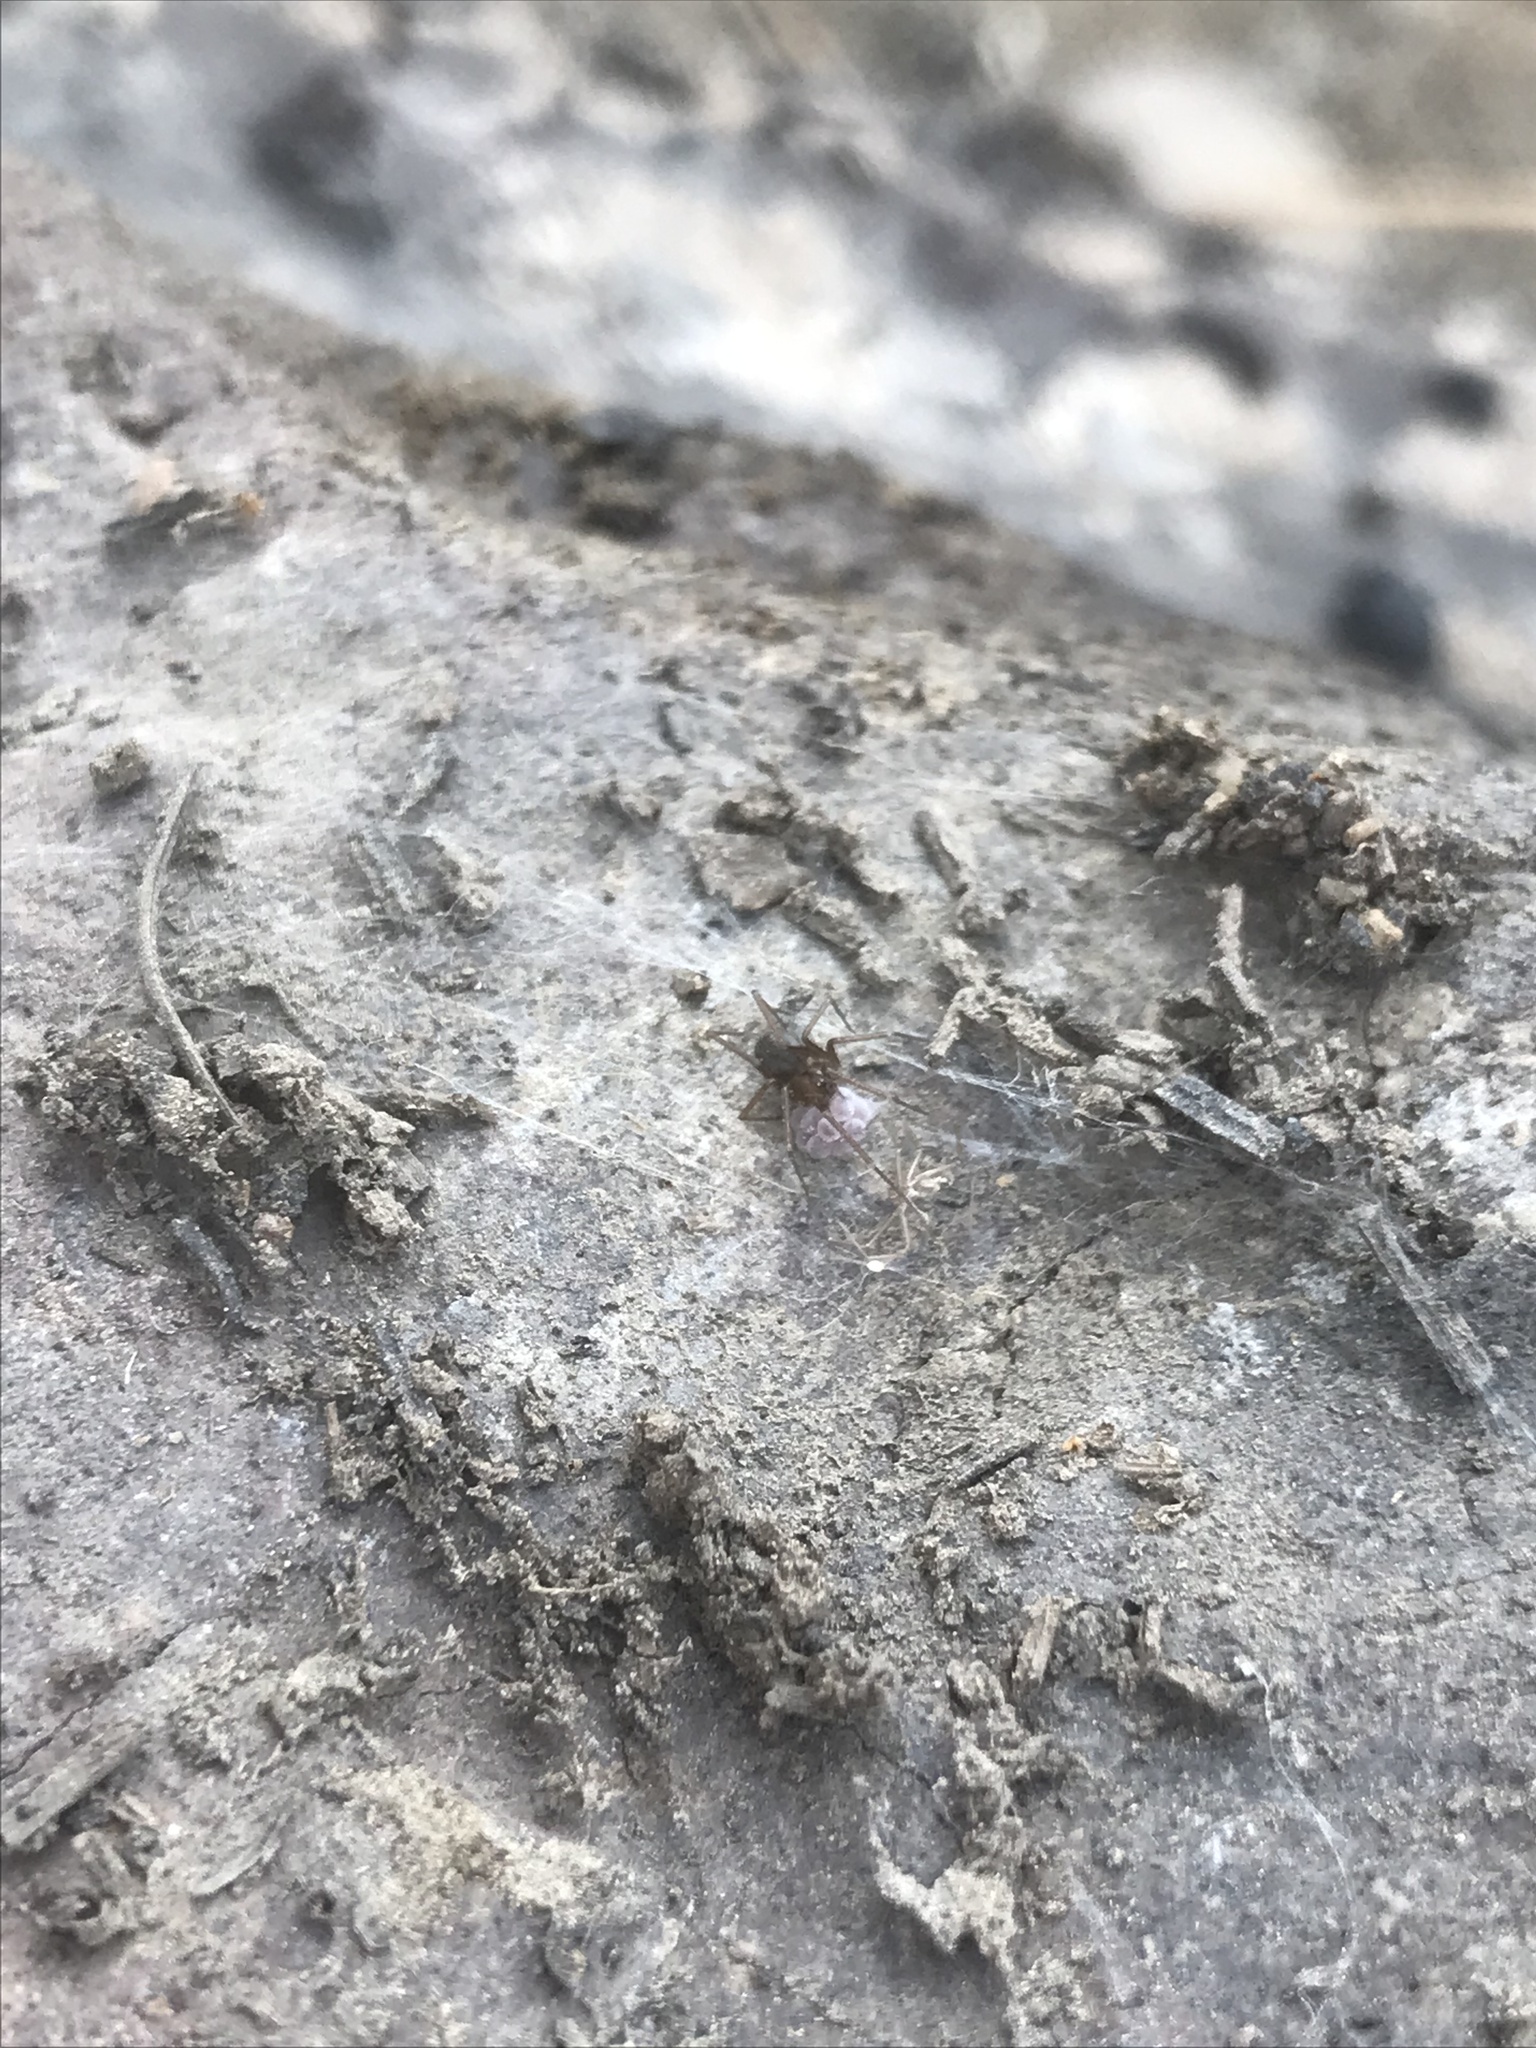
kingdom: Animalia
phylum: Arthropoda
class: Arachnida
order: Araneae
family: Pholcidae
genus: Pholcophora
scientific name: Pholcophora americana
